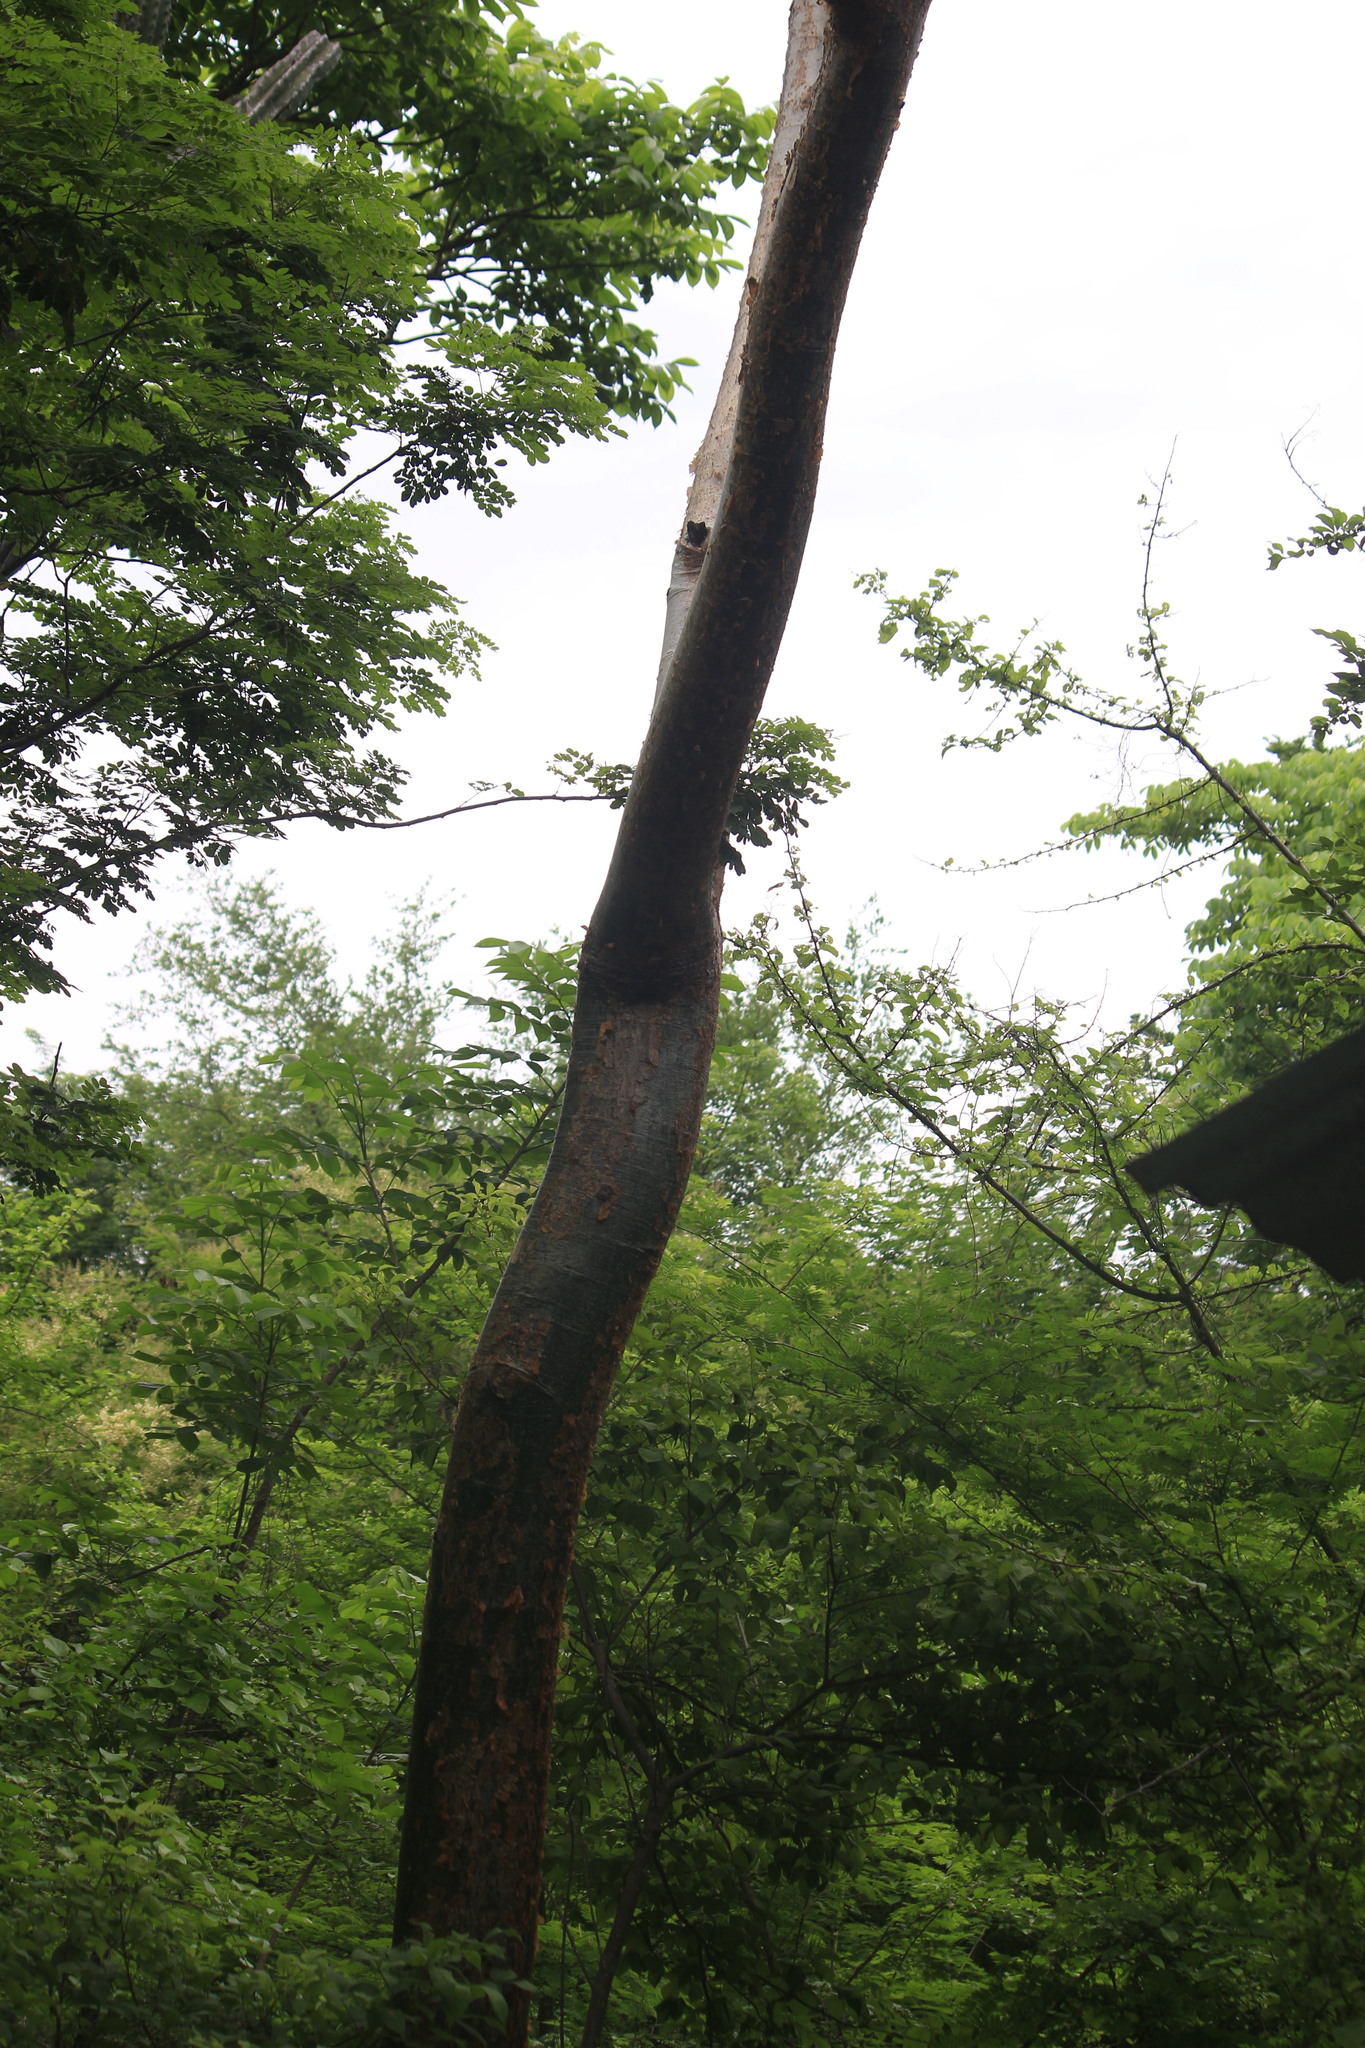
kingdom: Plantae
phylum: Tracheophyta
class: Magnoliopsida
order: Sapindales
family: Burseraceae
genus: Bursera
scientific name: Bursera simaruba
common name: Turpentine tree
